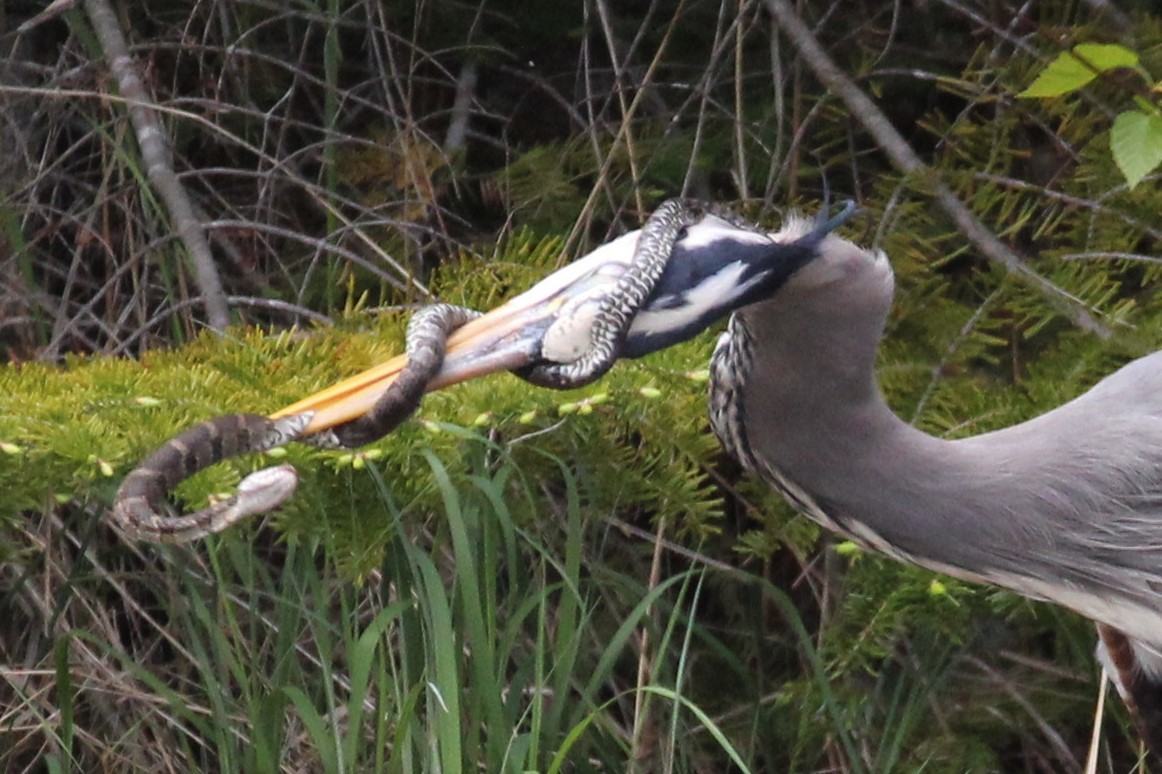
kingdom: Animalia
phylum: Chordata
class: Squamata
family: Colubridae
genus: Nerodia
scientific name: Nerodia sipedon
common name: Northern water snake
